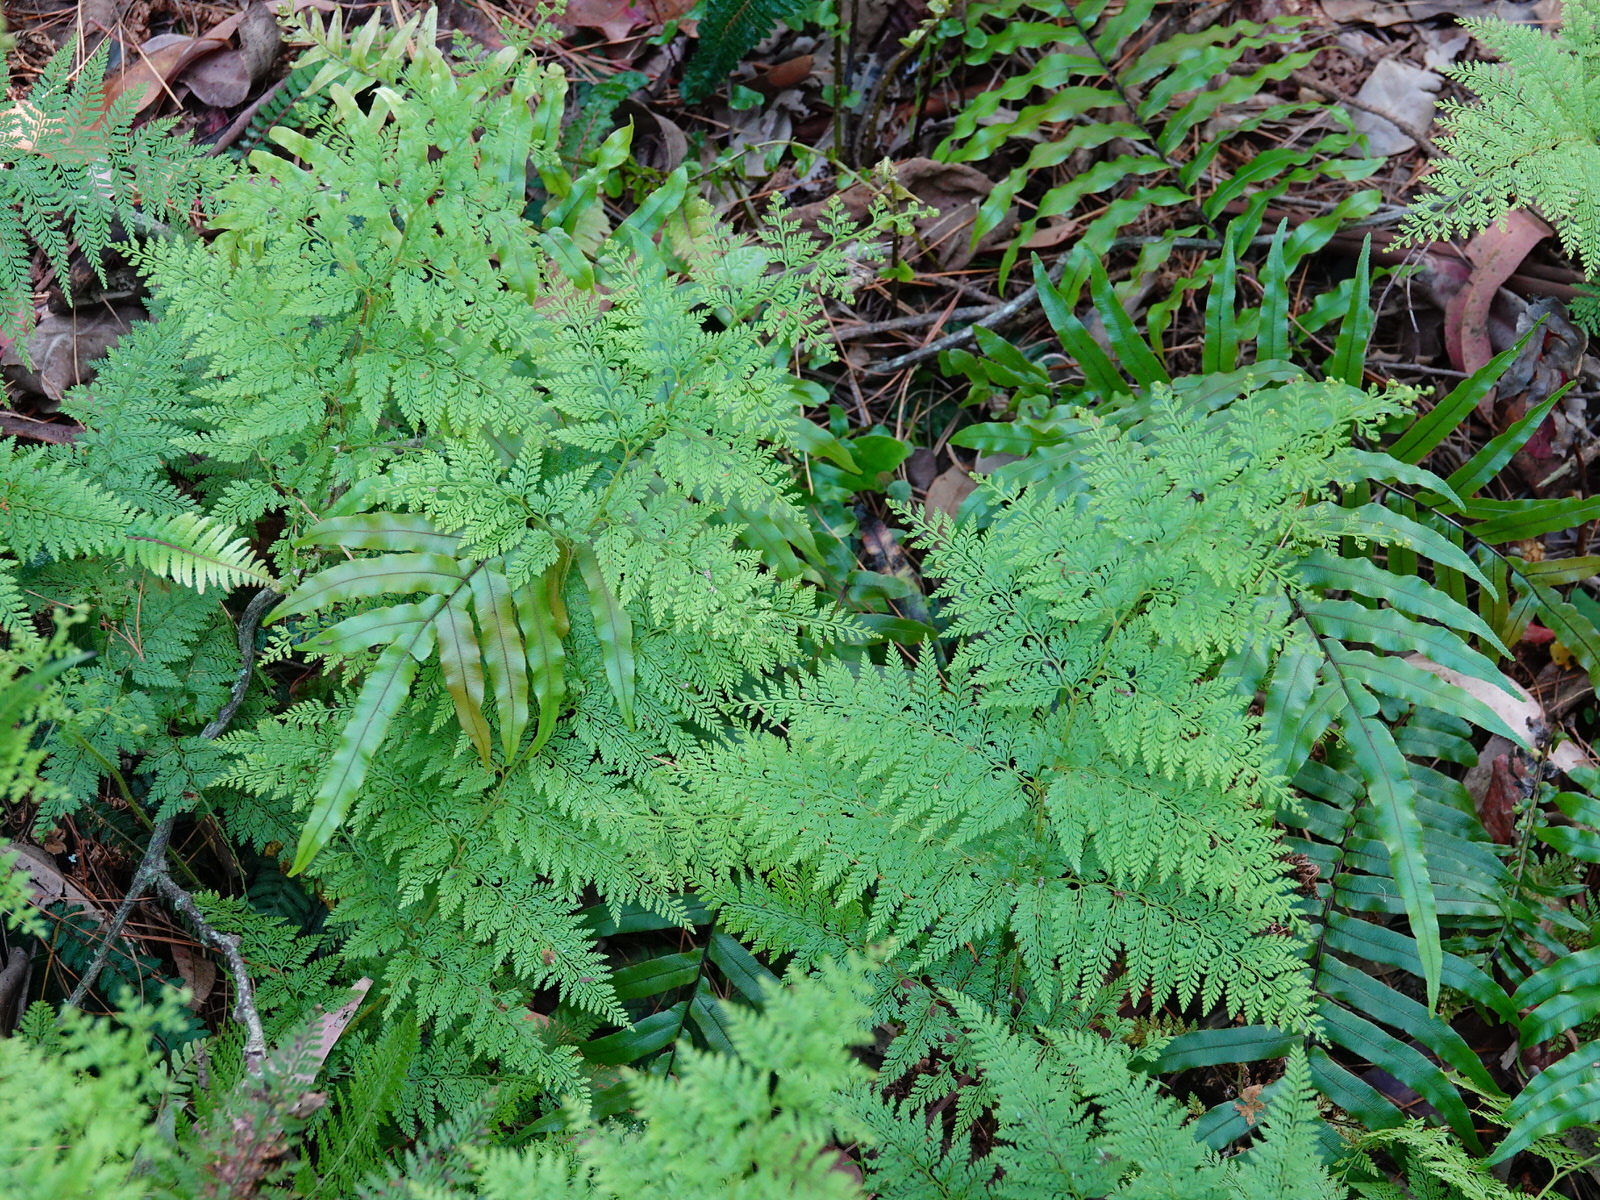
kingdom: Plantae
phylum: Tracheophyta
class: Polypodiopsida
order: Polypodiales
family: Dennstaedtiaceae
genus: Paesia
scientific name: Paesia scaberula
